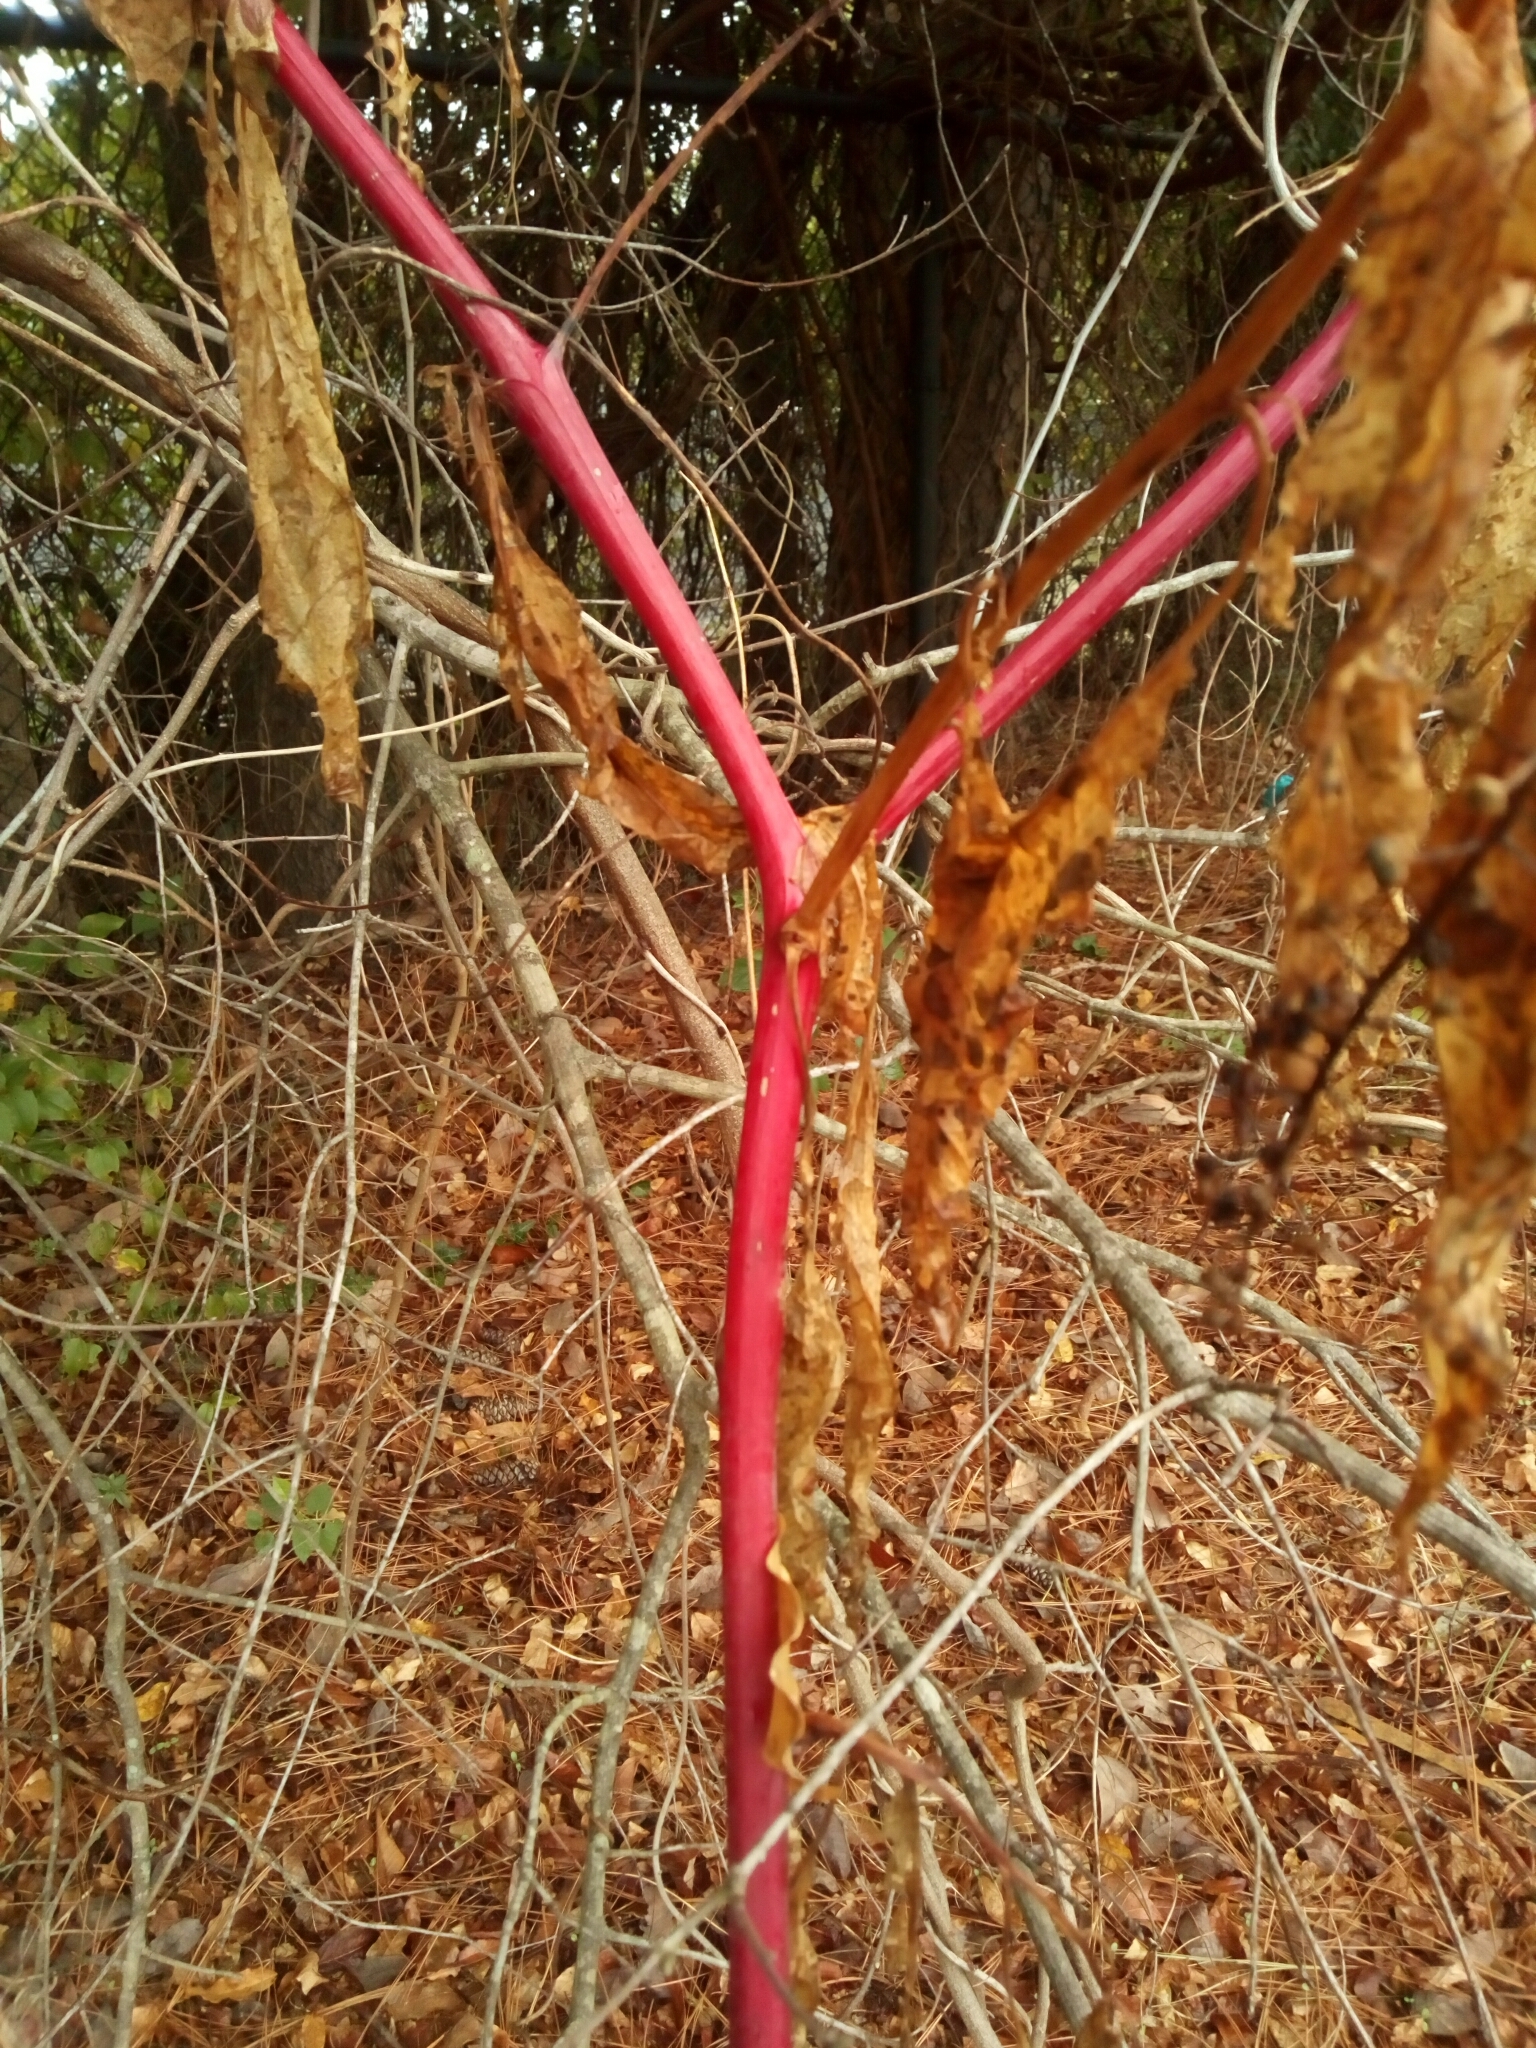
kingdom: Plantae
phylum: Tracheophyta
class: Magnoliopsida
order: Caryophyllales
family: Phytolaccaceae
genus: Phytolacca
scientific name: Phytolacca americana
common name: American pokeweed
